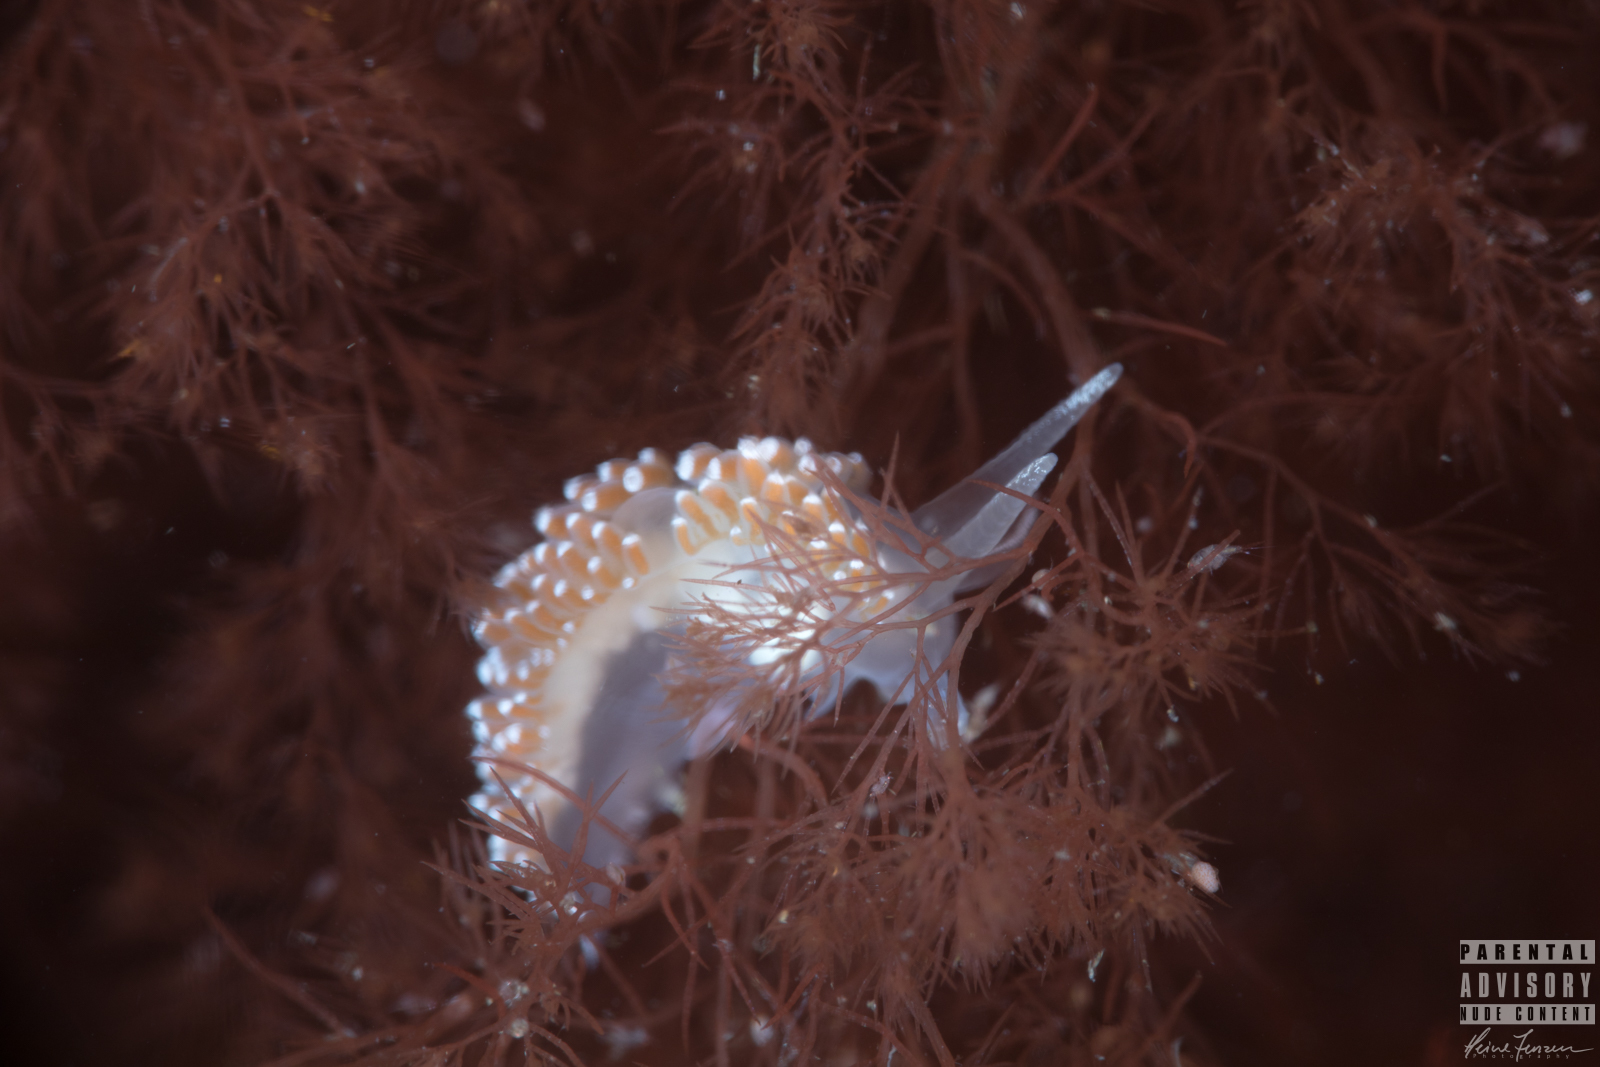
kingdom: Animalia
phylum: Mollusca
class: Gastropoda
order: Nudibranchia
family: Coryphellidae
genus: Coryphella
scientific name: Coryphella verrucosa
